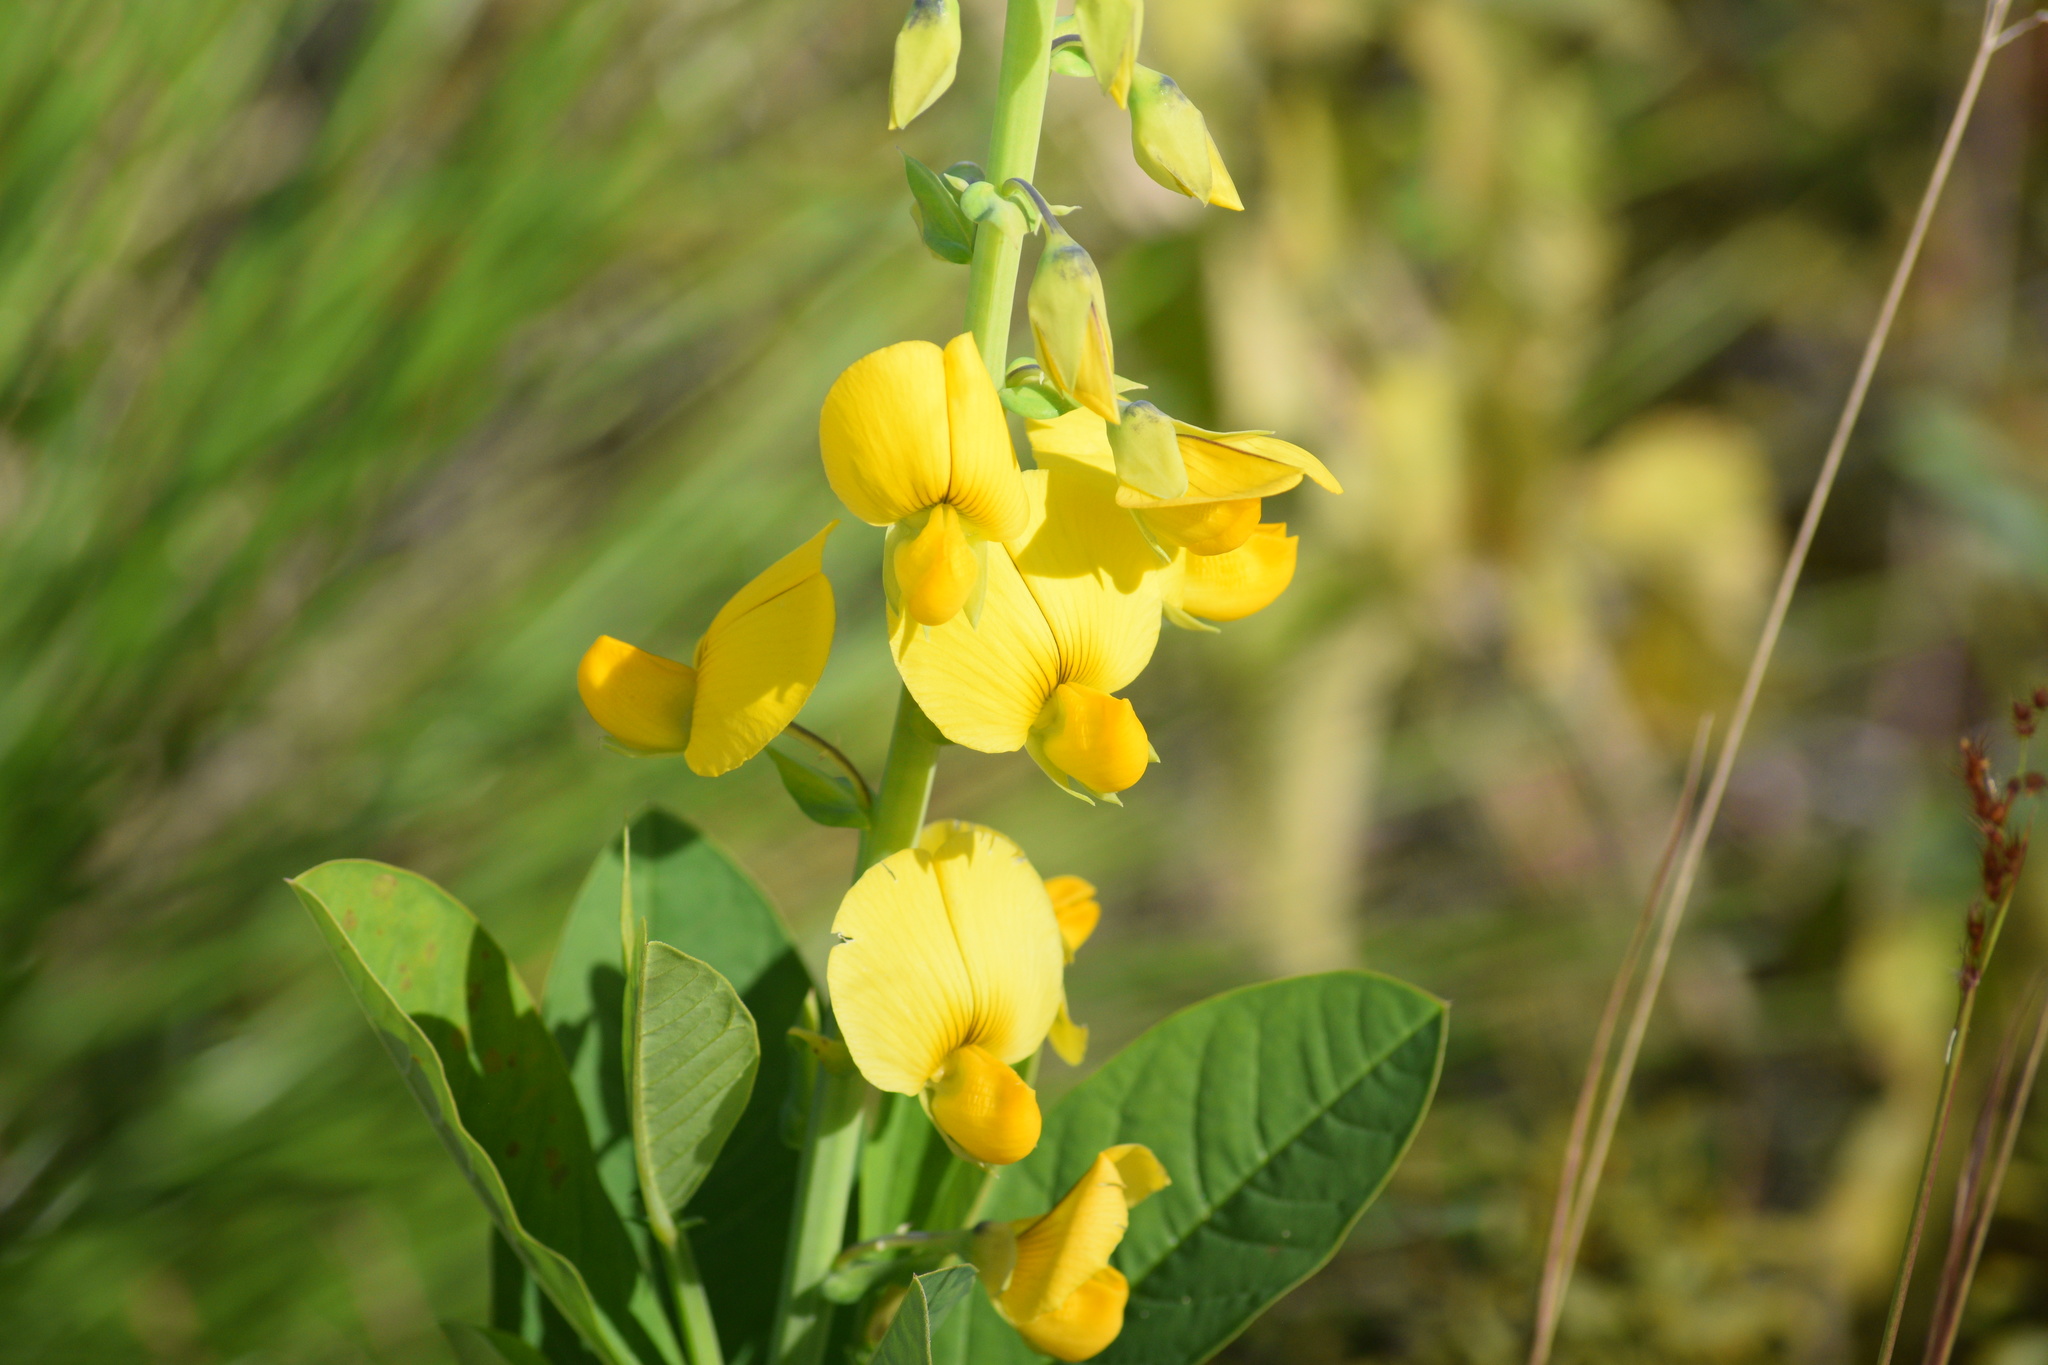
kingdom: Plantae
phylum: Tracheophyta
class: Magnoliopsida
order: Fabales
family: Fabaceae
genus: Crotalaria
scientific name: Crotalaria spectabilis
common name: Showy rattlebox
